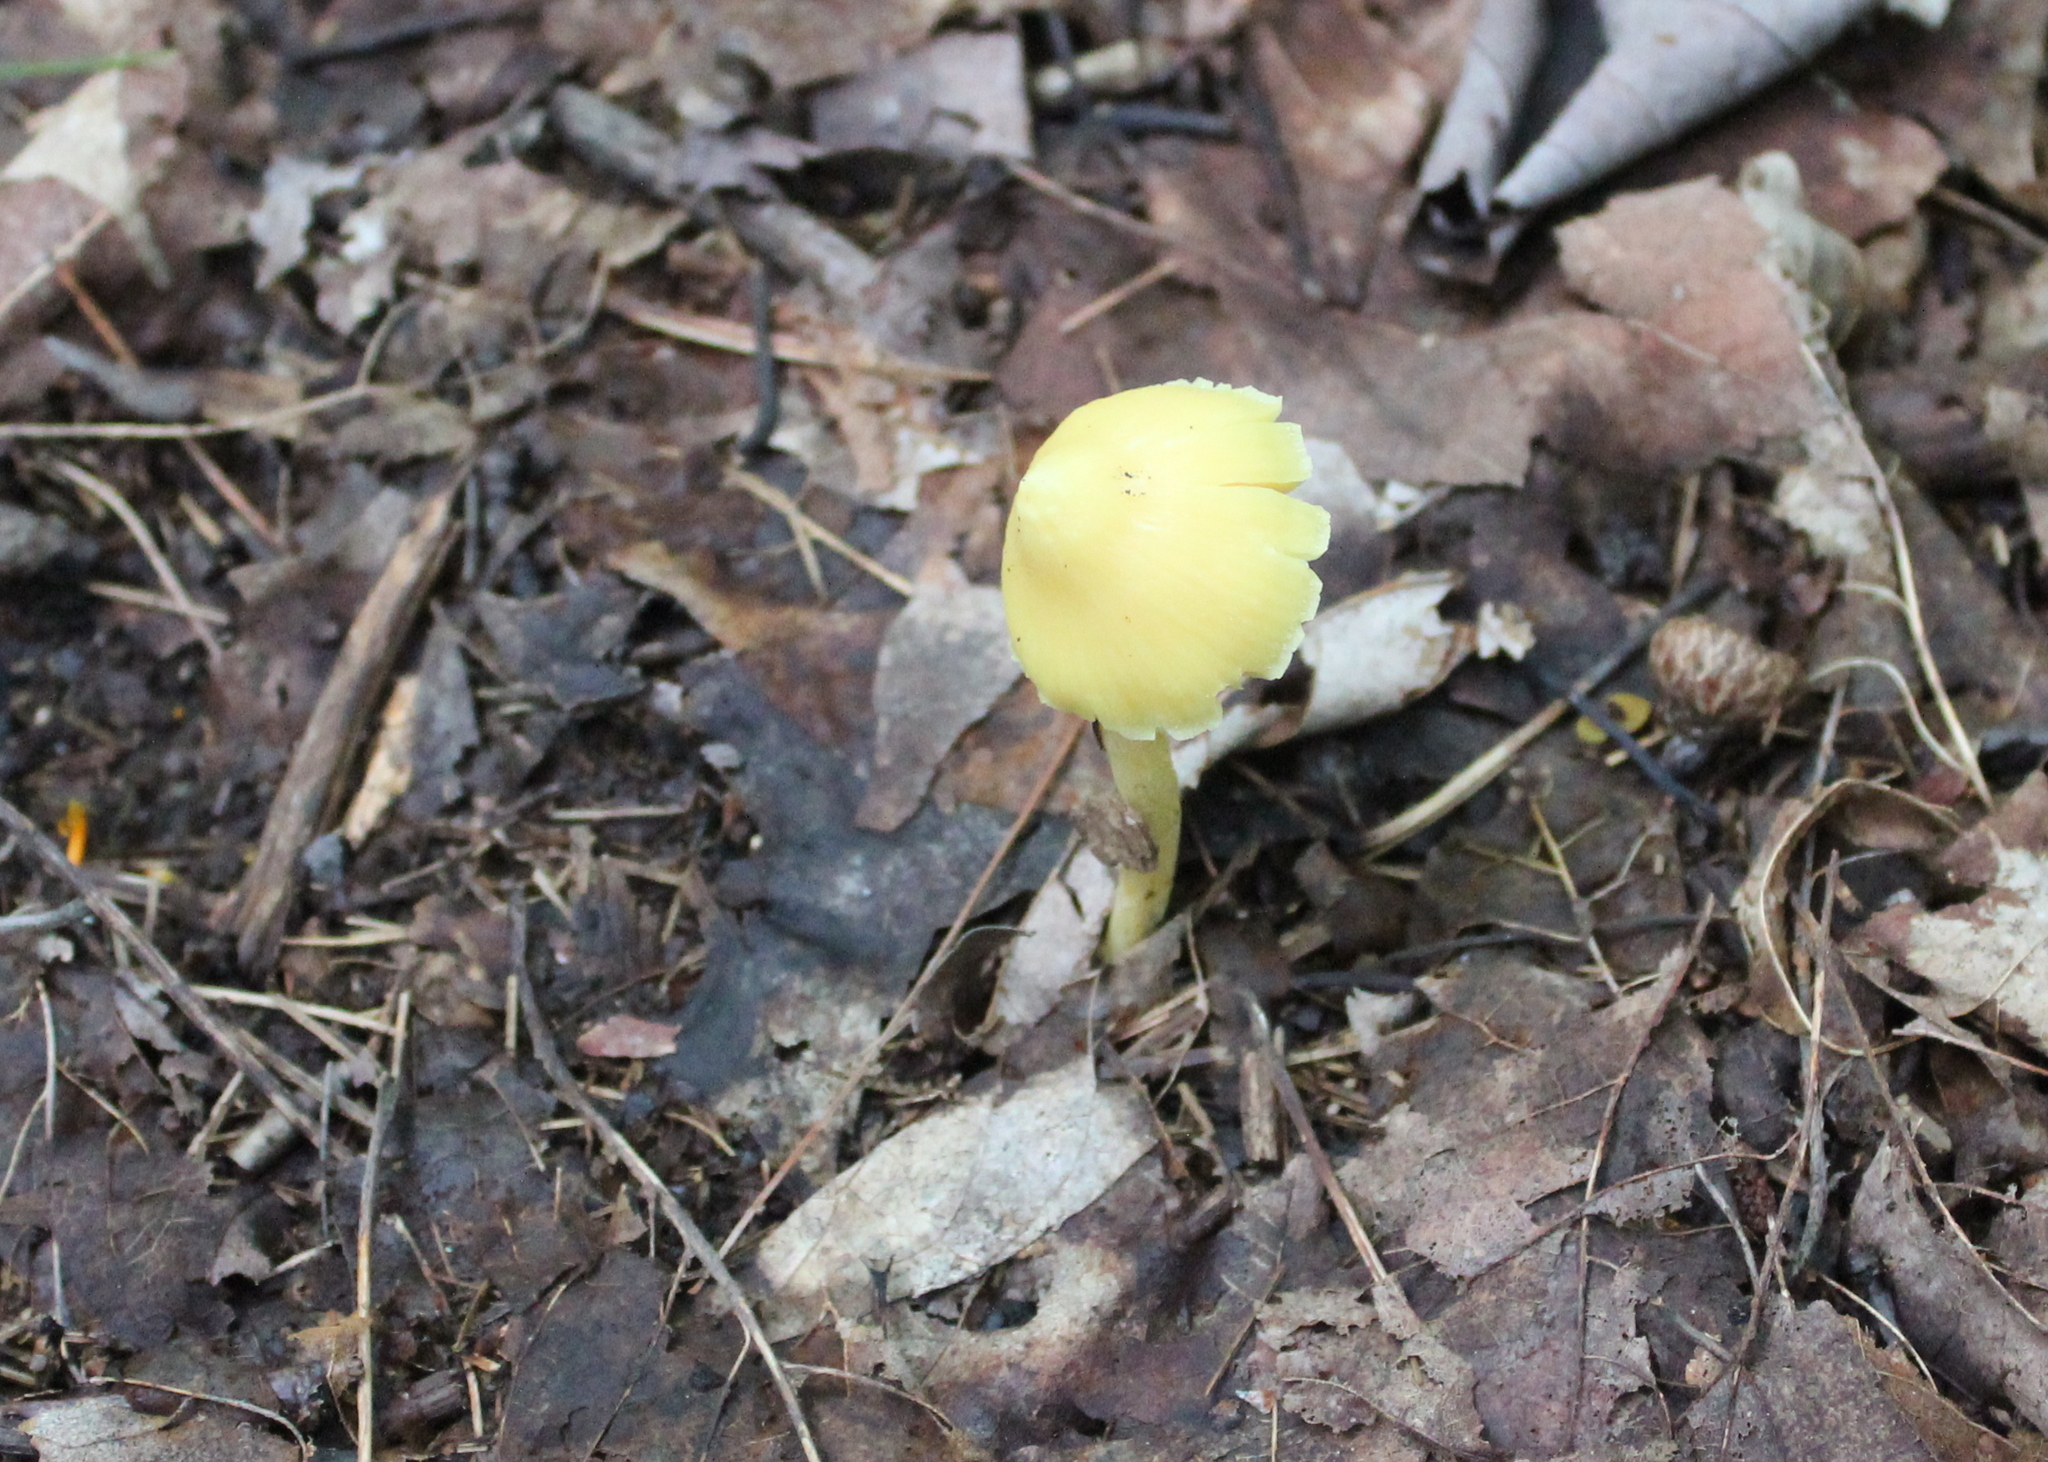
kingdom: Fungi
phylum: Basidiomycota
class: Agaricomycetes
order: Agaricales
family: Entolomataceae
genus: Entoloma
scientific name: Entoloma murrayi
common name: Yellow unicorn entoloma
